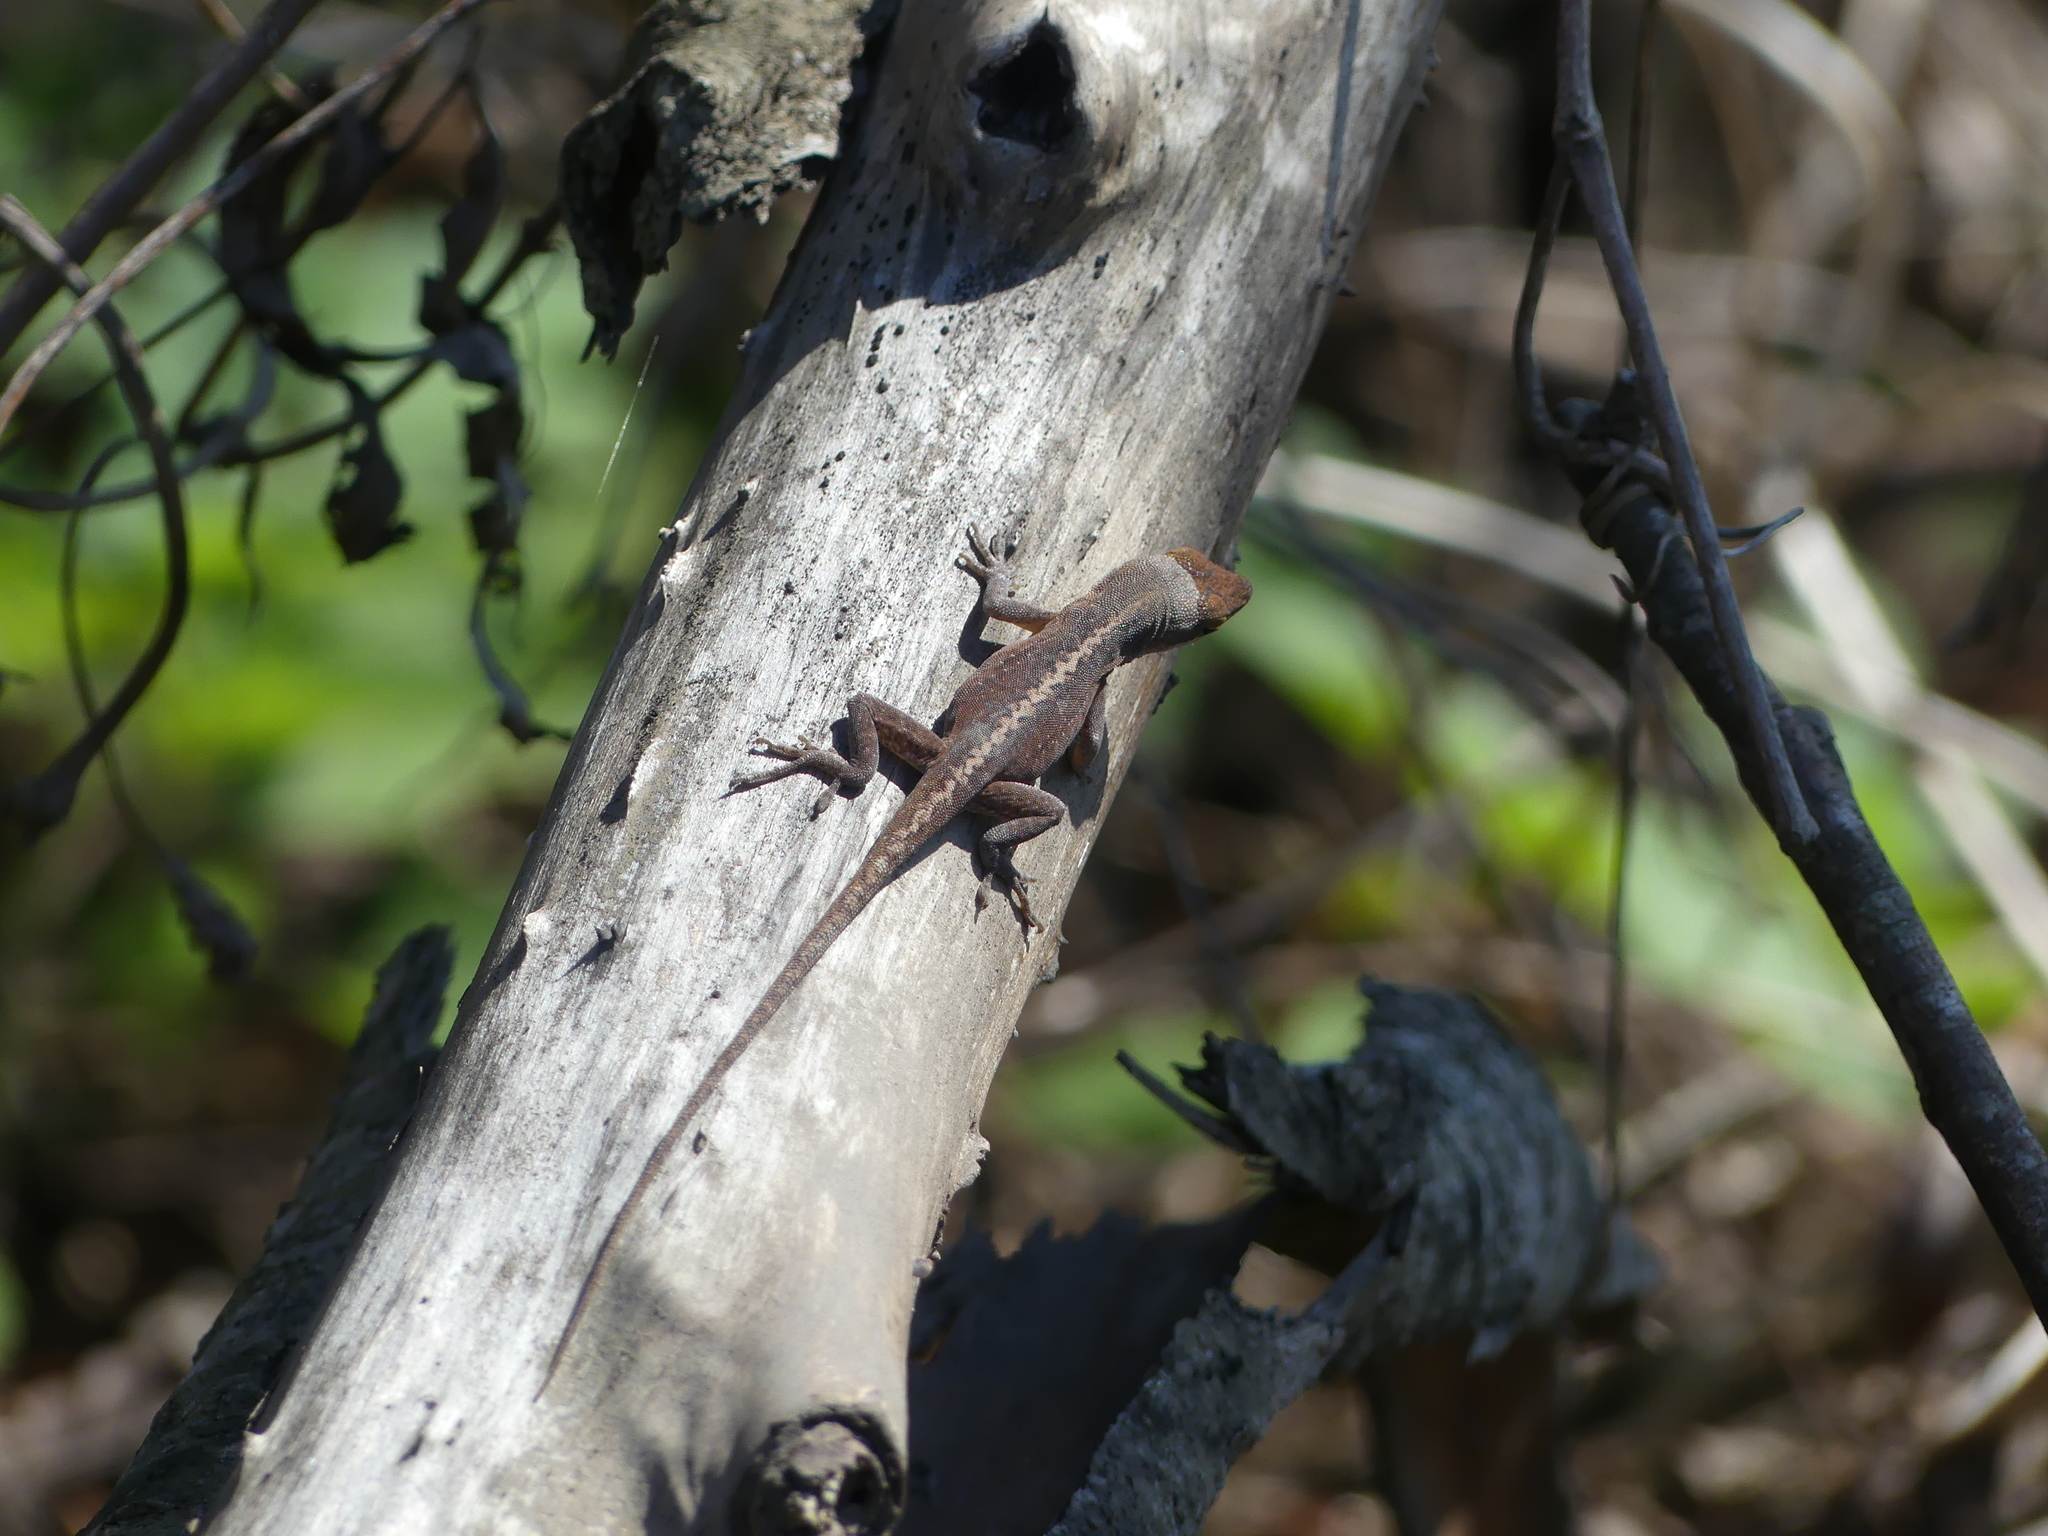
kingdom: Animalia
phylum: Chordata
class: Squamata
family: Dactyloidae
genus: Anolis
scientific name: Anolis carolinensis
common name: Green anole
